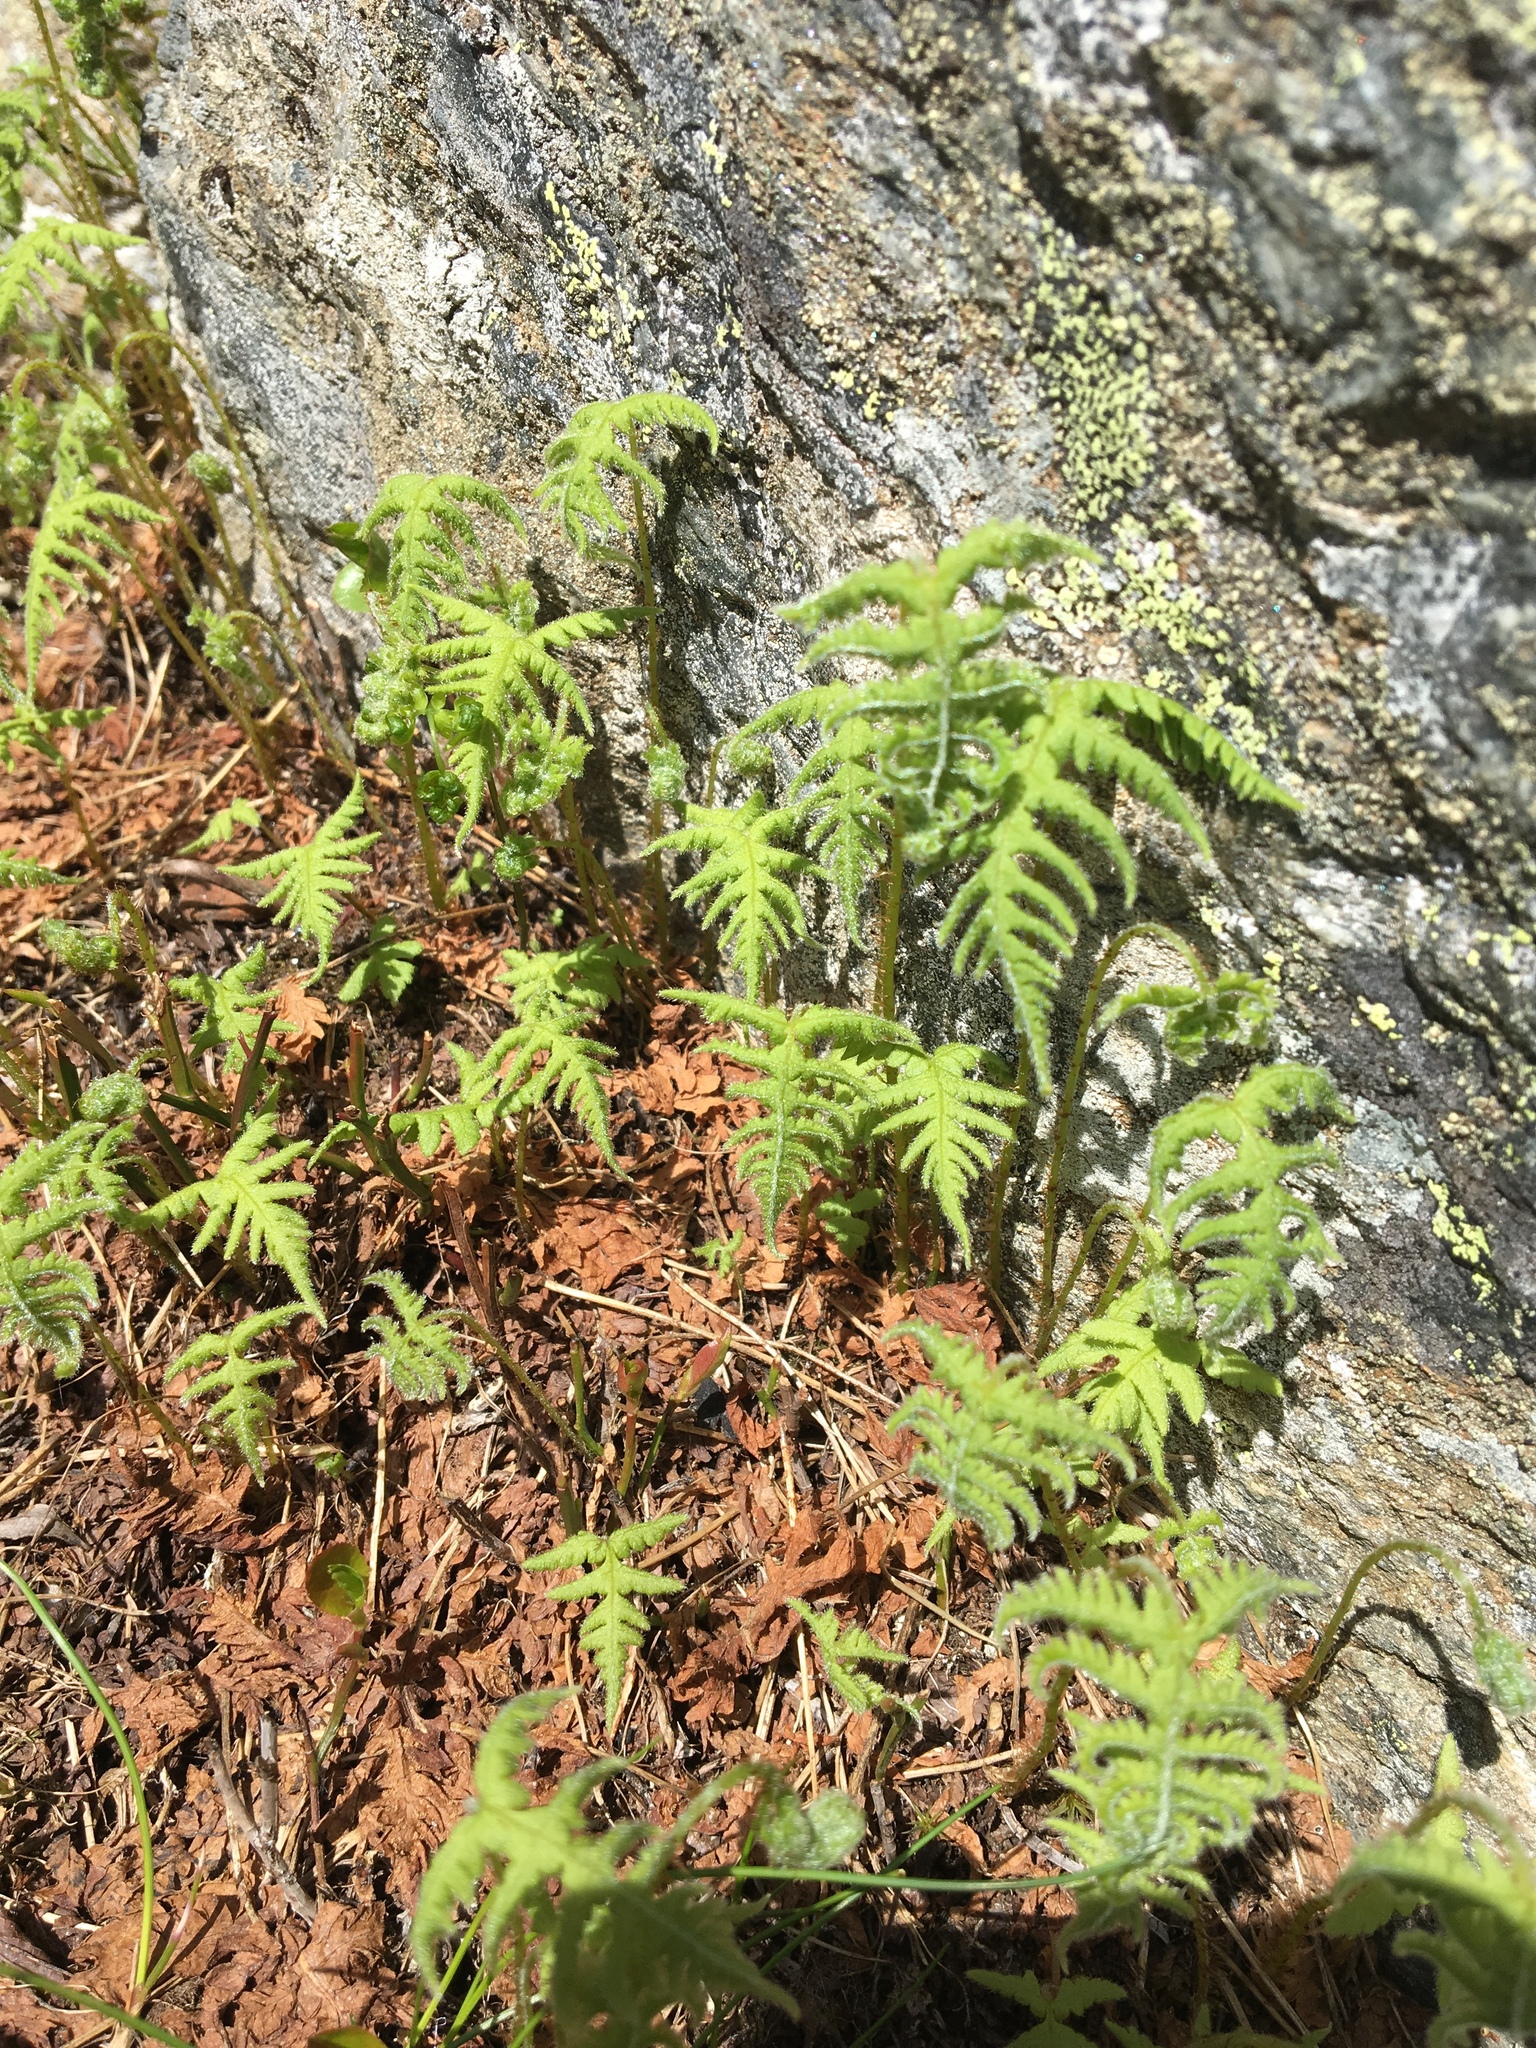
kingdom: Plantae
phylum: Tracheophyta
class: Polypodiopsida
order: Polypodiales
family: Thelypteridaceae
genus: Phegopteris
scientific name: Phegopteris connectilis
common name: Beech fern
